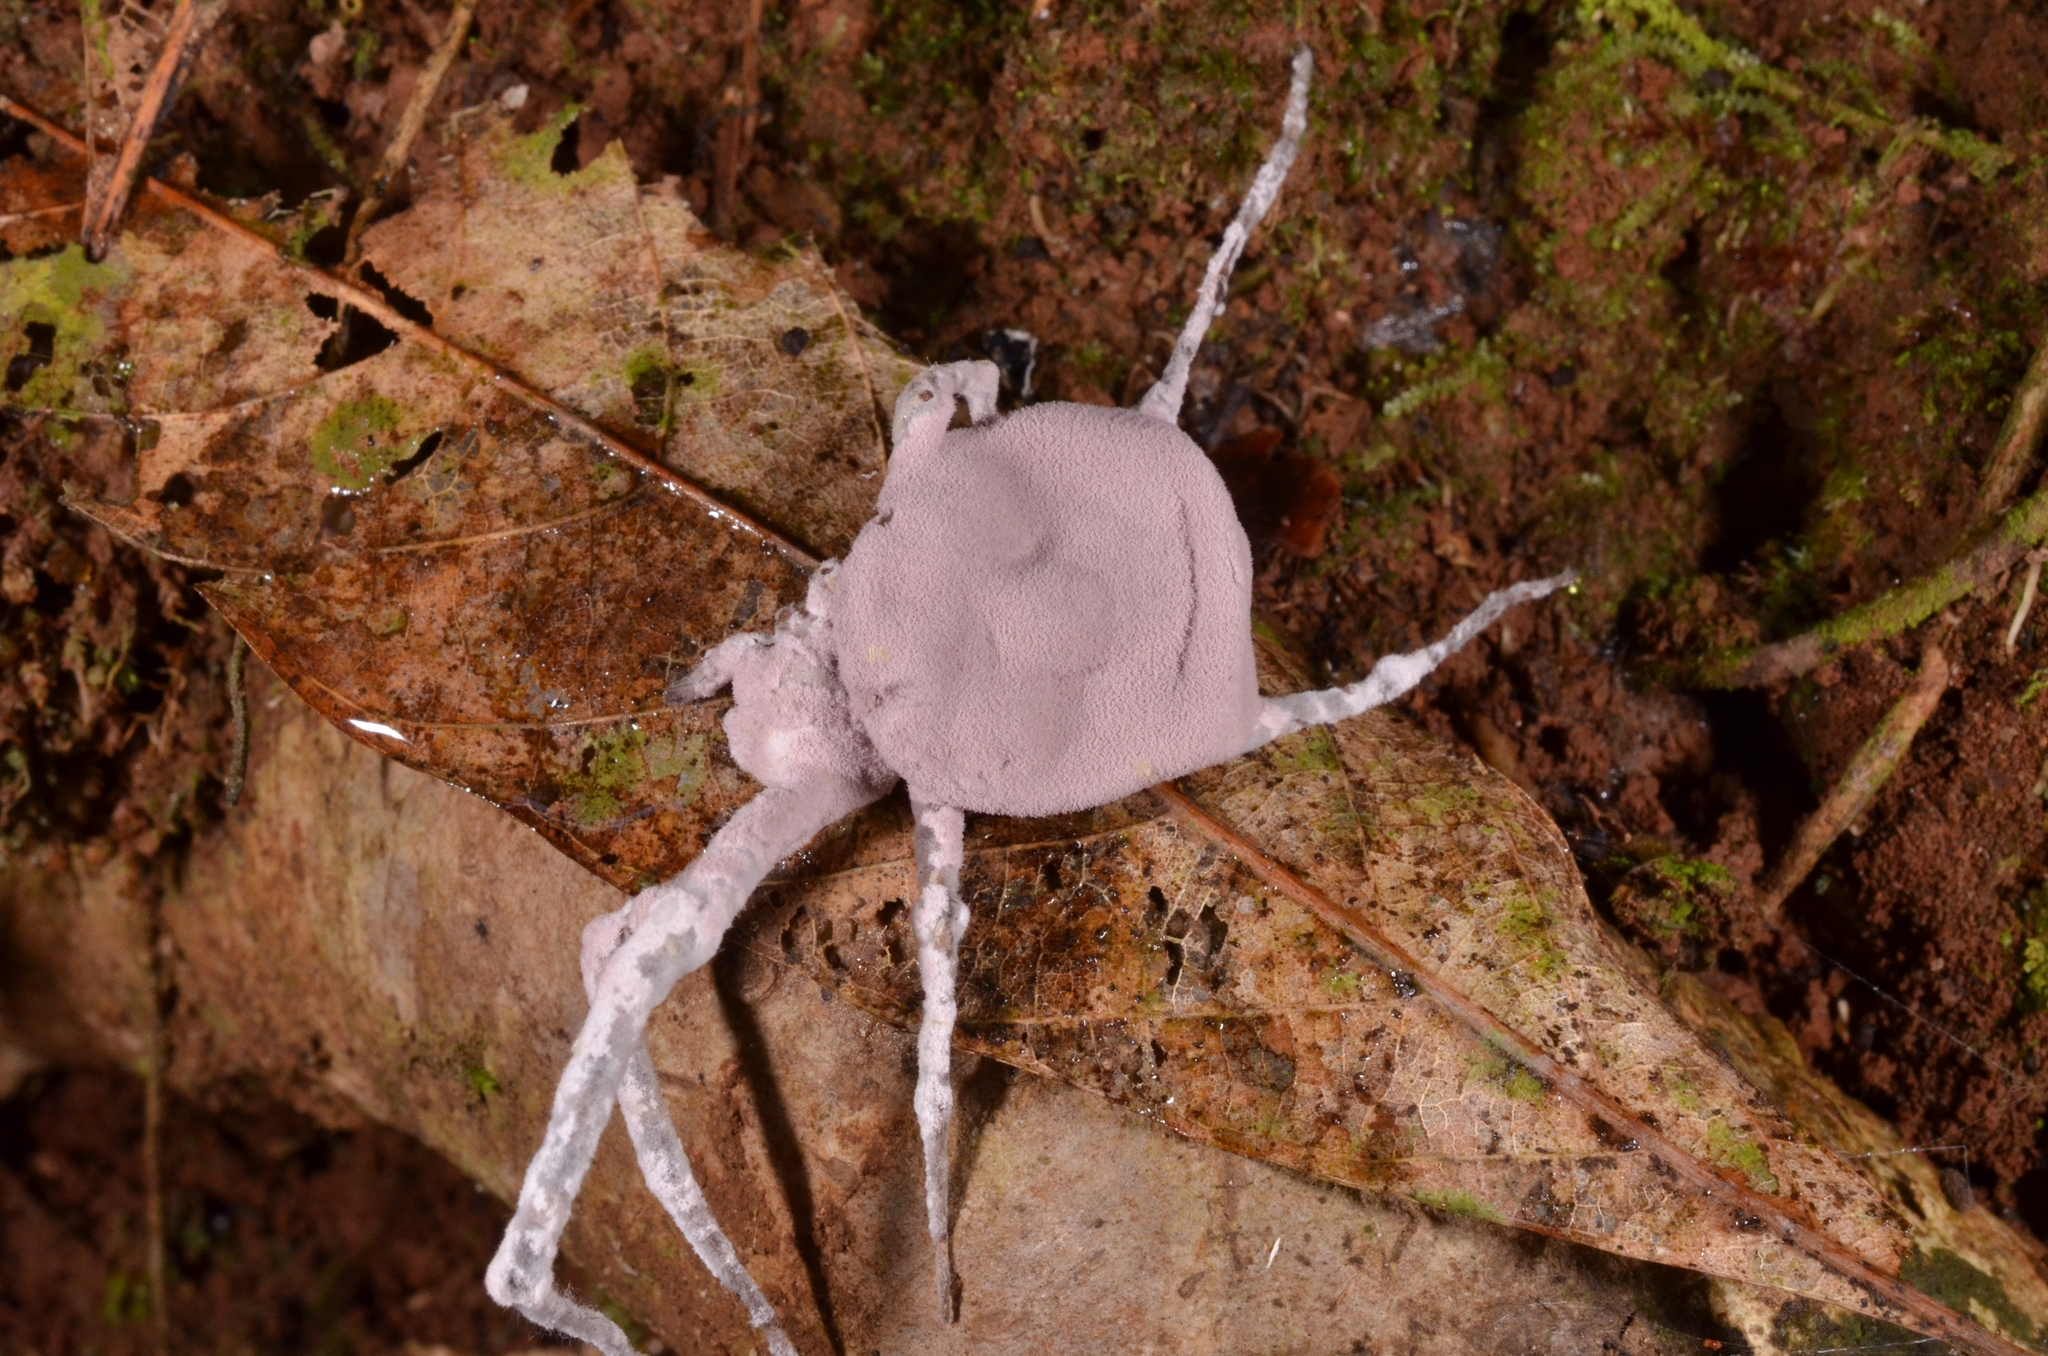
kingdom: Fungi
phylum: Ascomycota
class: Sordariomycetes
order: Hypocreales
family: Ophiocordycipitaceae
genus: Purpureocillium
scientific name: Purpureocillium atypicola
